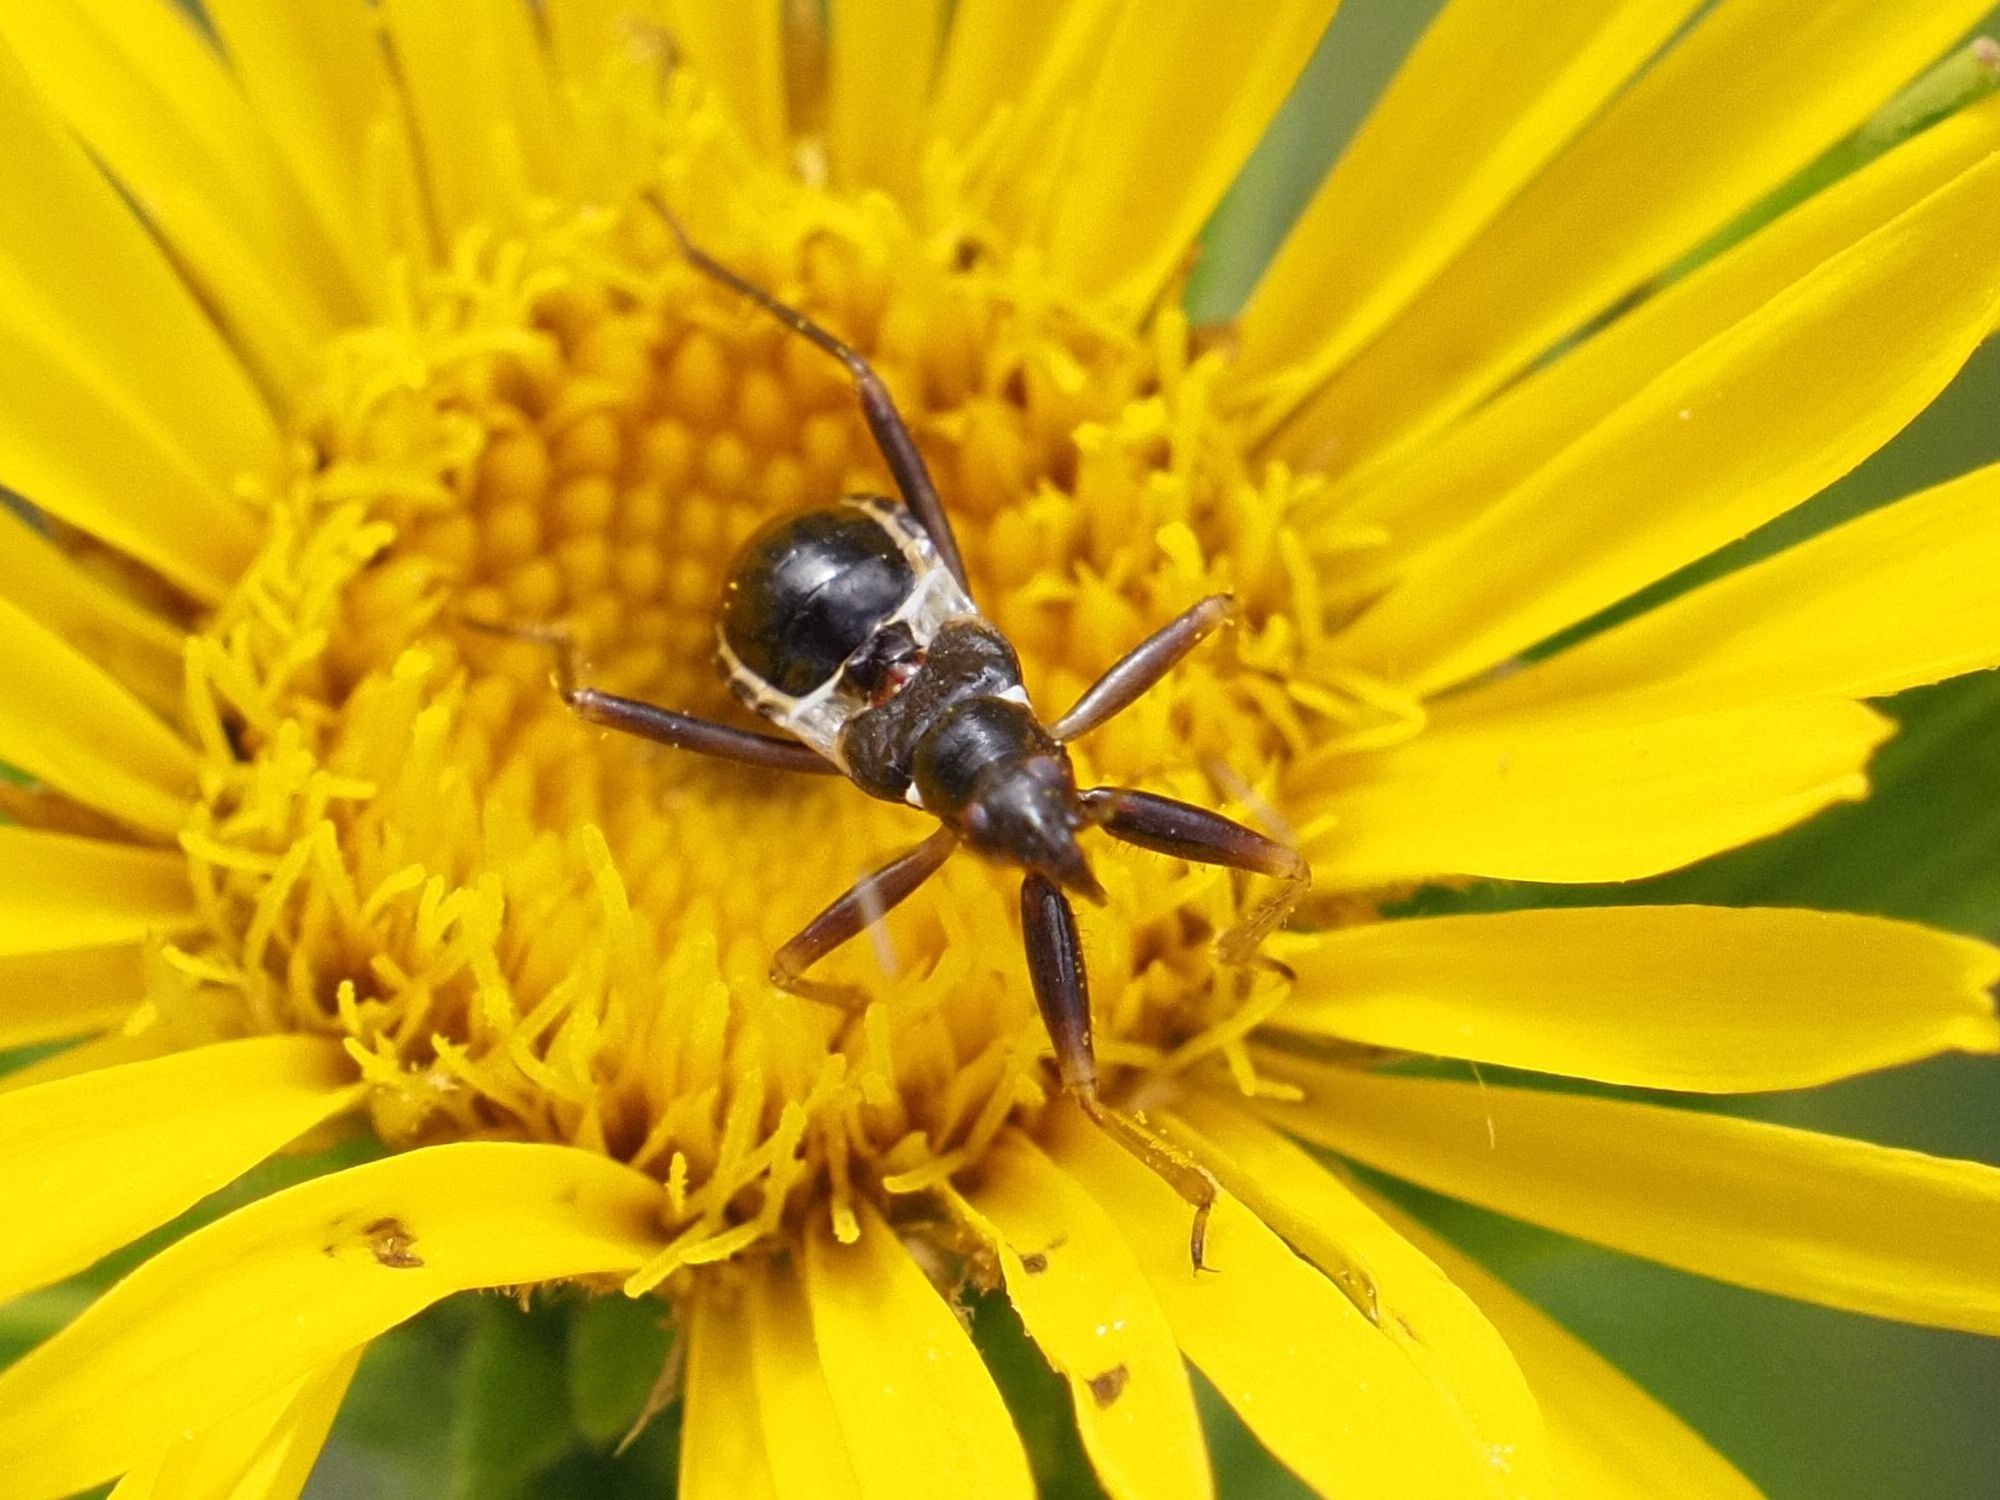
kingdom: Animalia
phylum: Arthropoda
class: Insecta
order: Hemiptera
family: Nabidae
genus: Himacerus
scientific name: Himacerus mirmicoides
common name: Ant damsel bug
